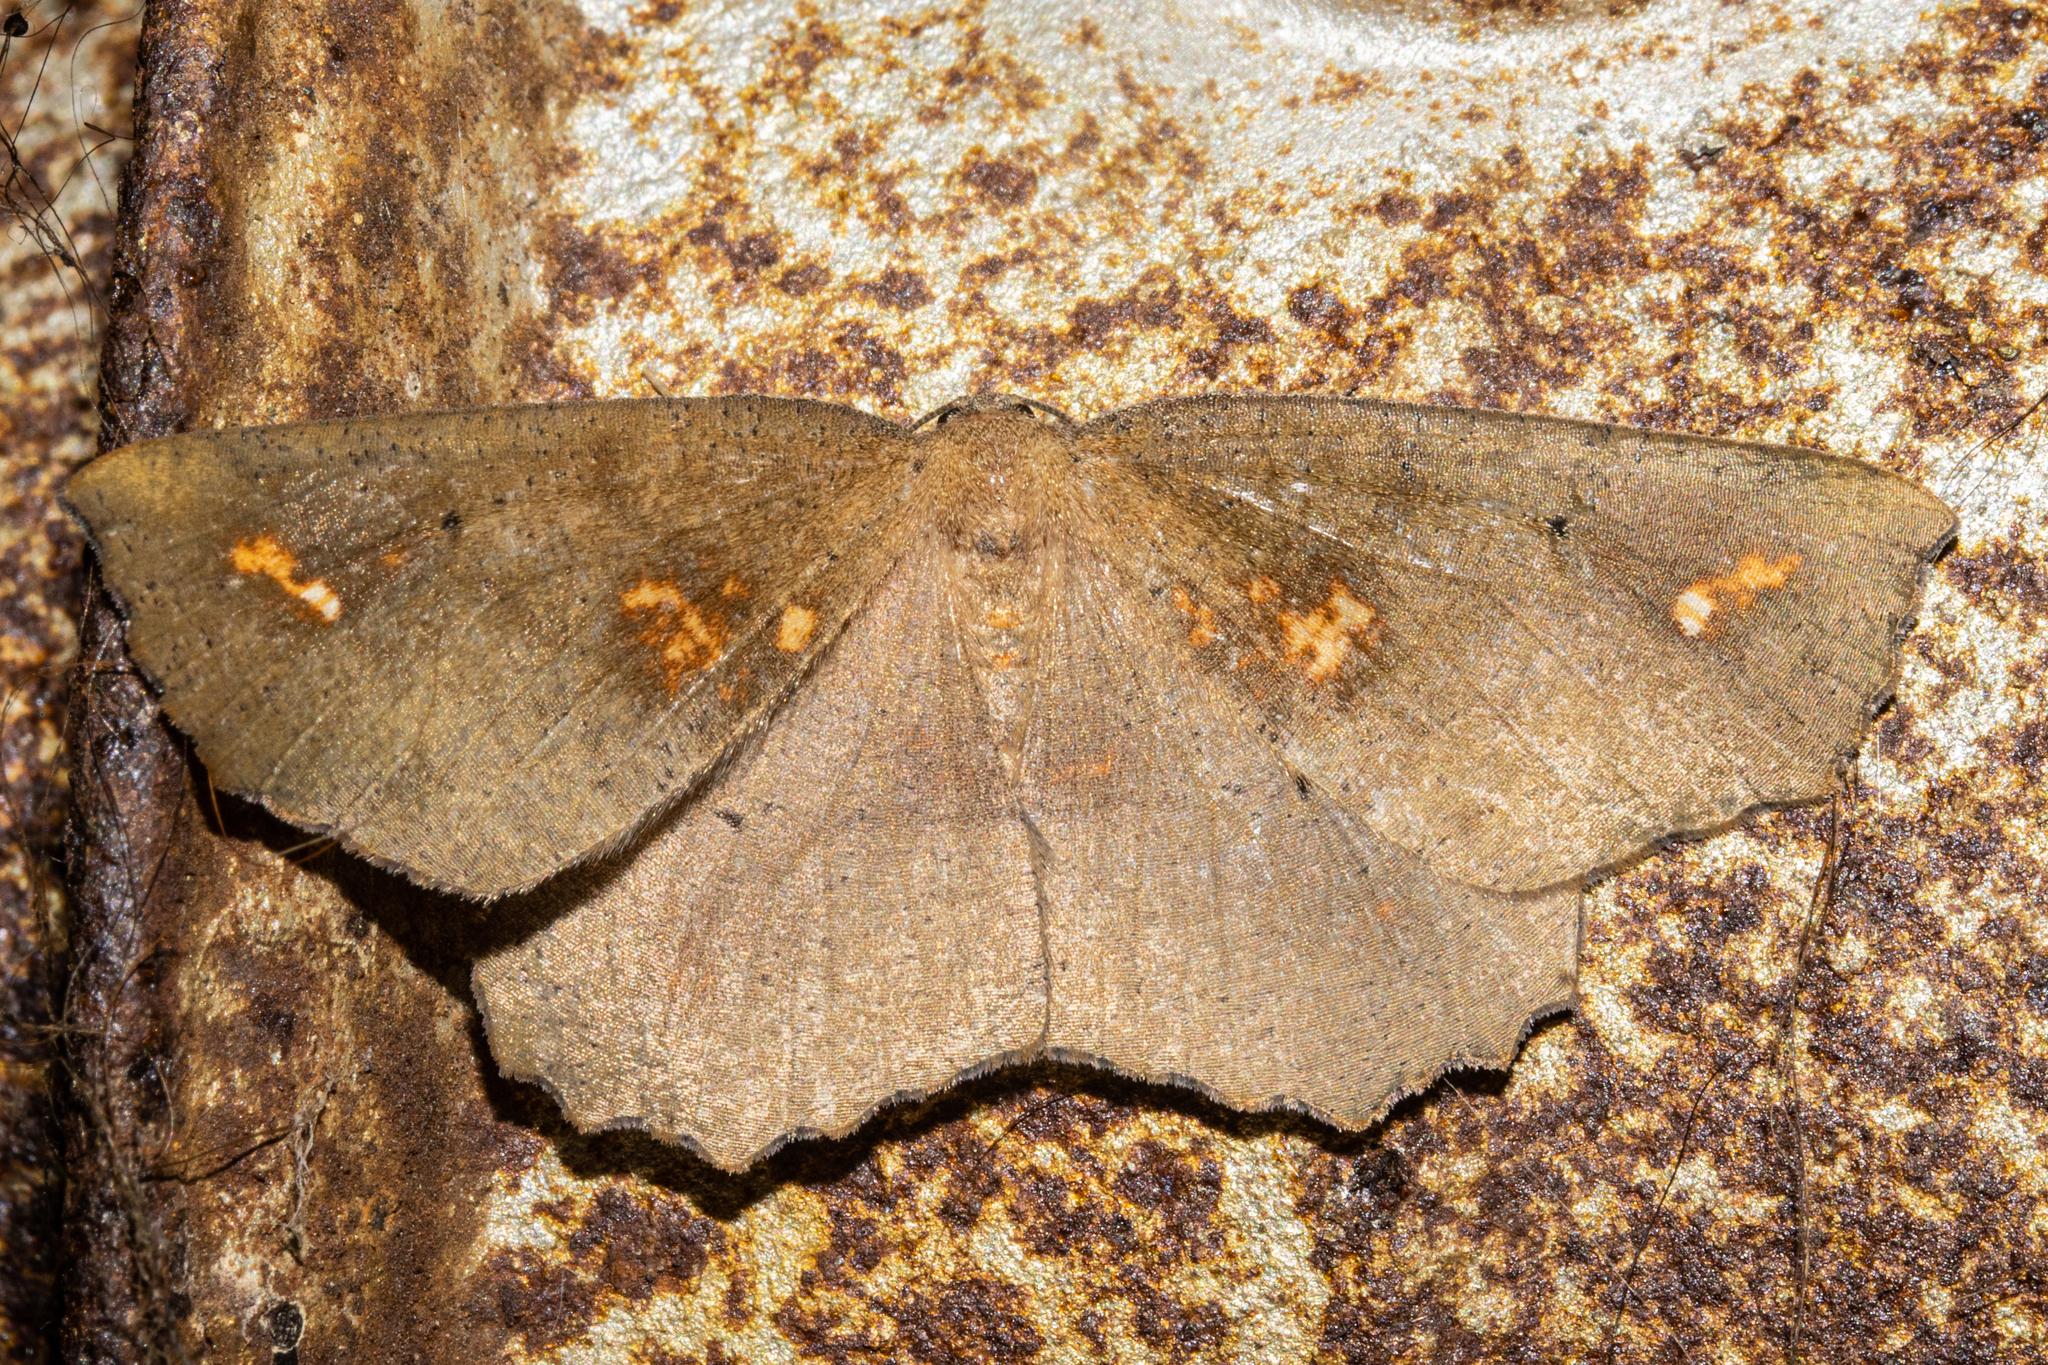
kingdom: Animalia
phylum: Arthropoda
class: Insecta
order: Lepidoptera
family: Geometridae
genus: Xyridacma
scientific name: Xyridacma ustaria
